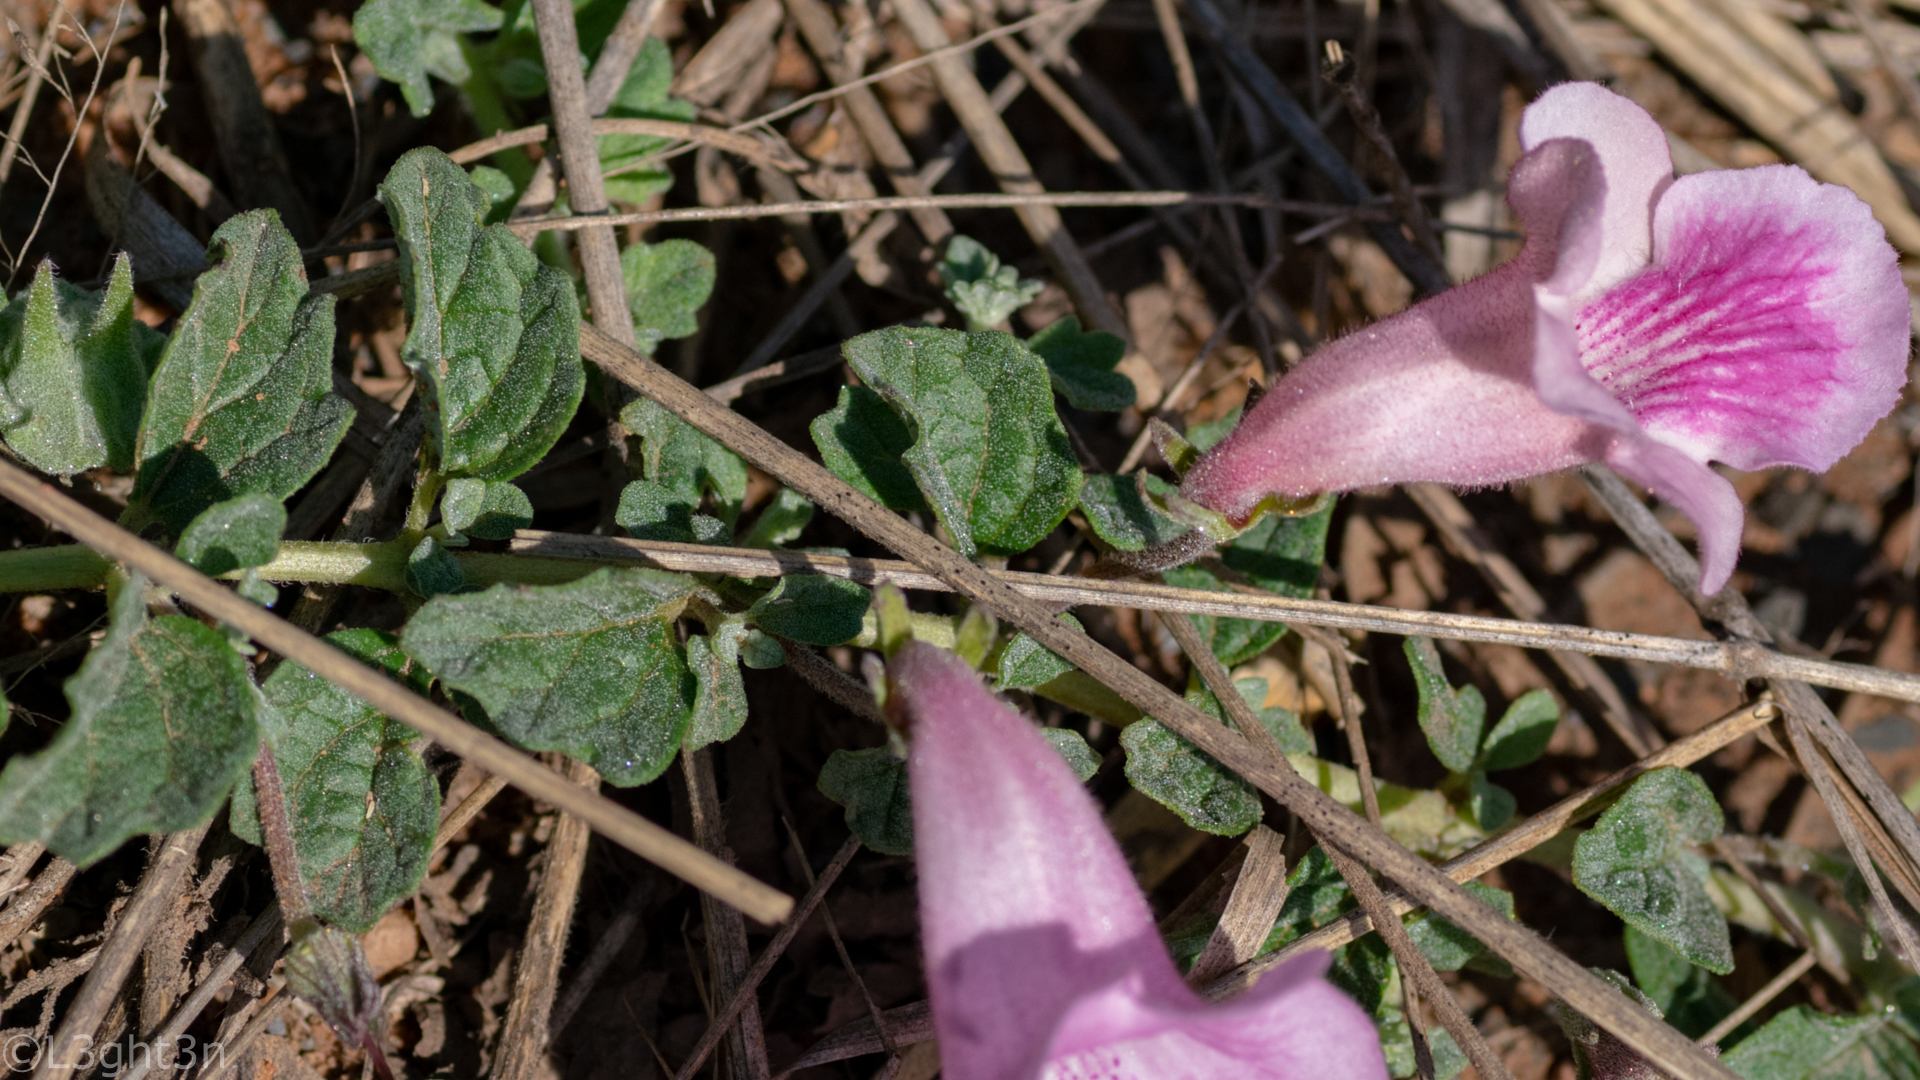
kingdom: Plantae
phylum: Tracheophyta
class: Magnoliopsida
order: Lamiales
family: Pedaliaceae
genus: Dicerocaryum
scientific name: Dicerocaryum eriocarpum
